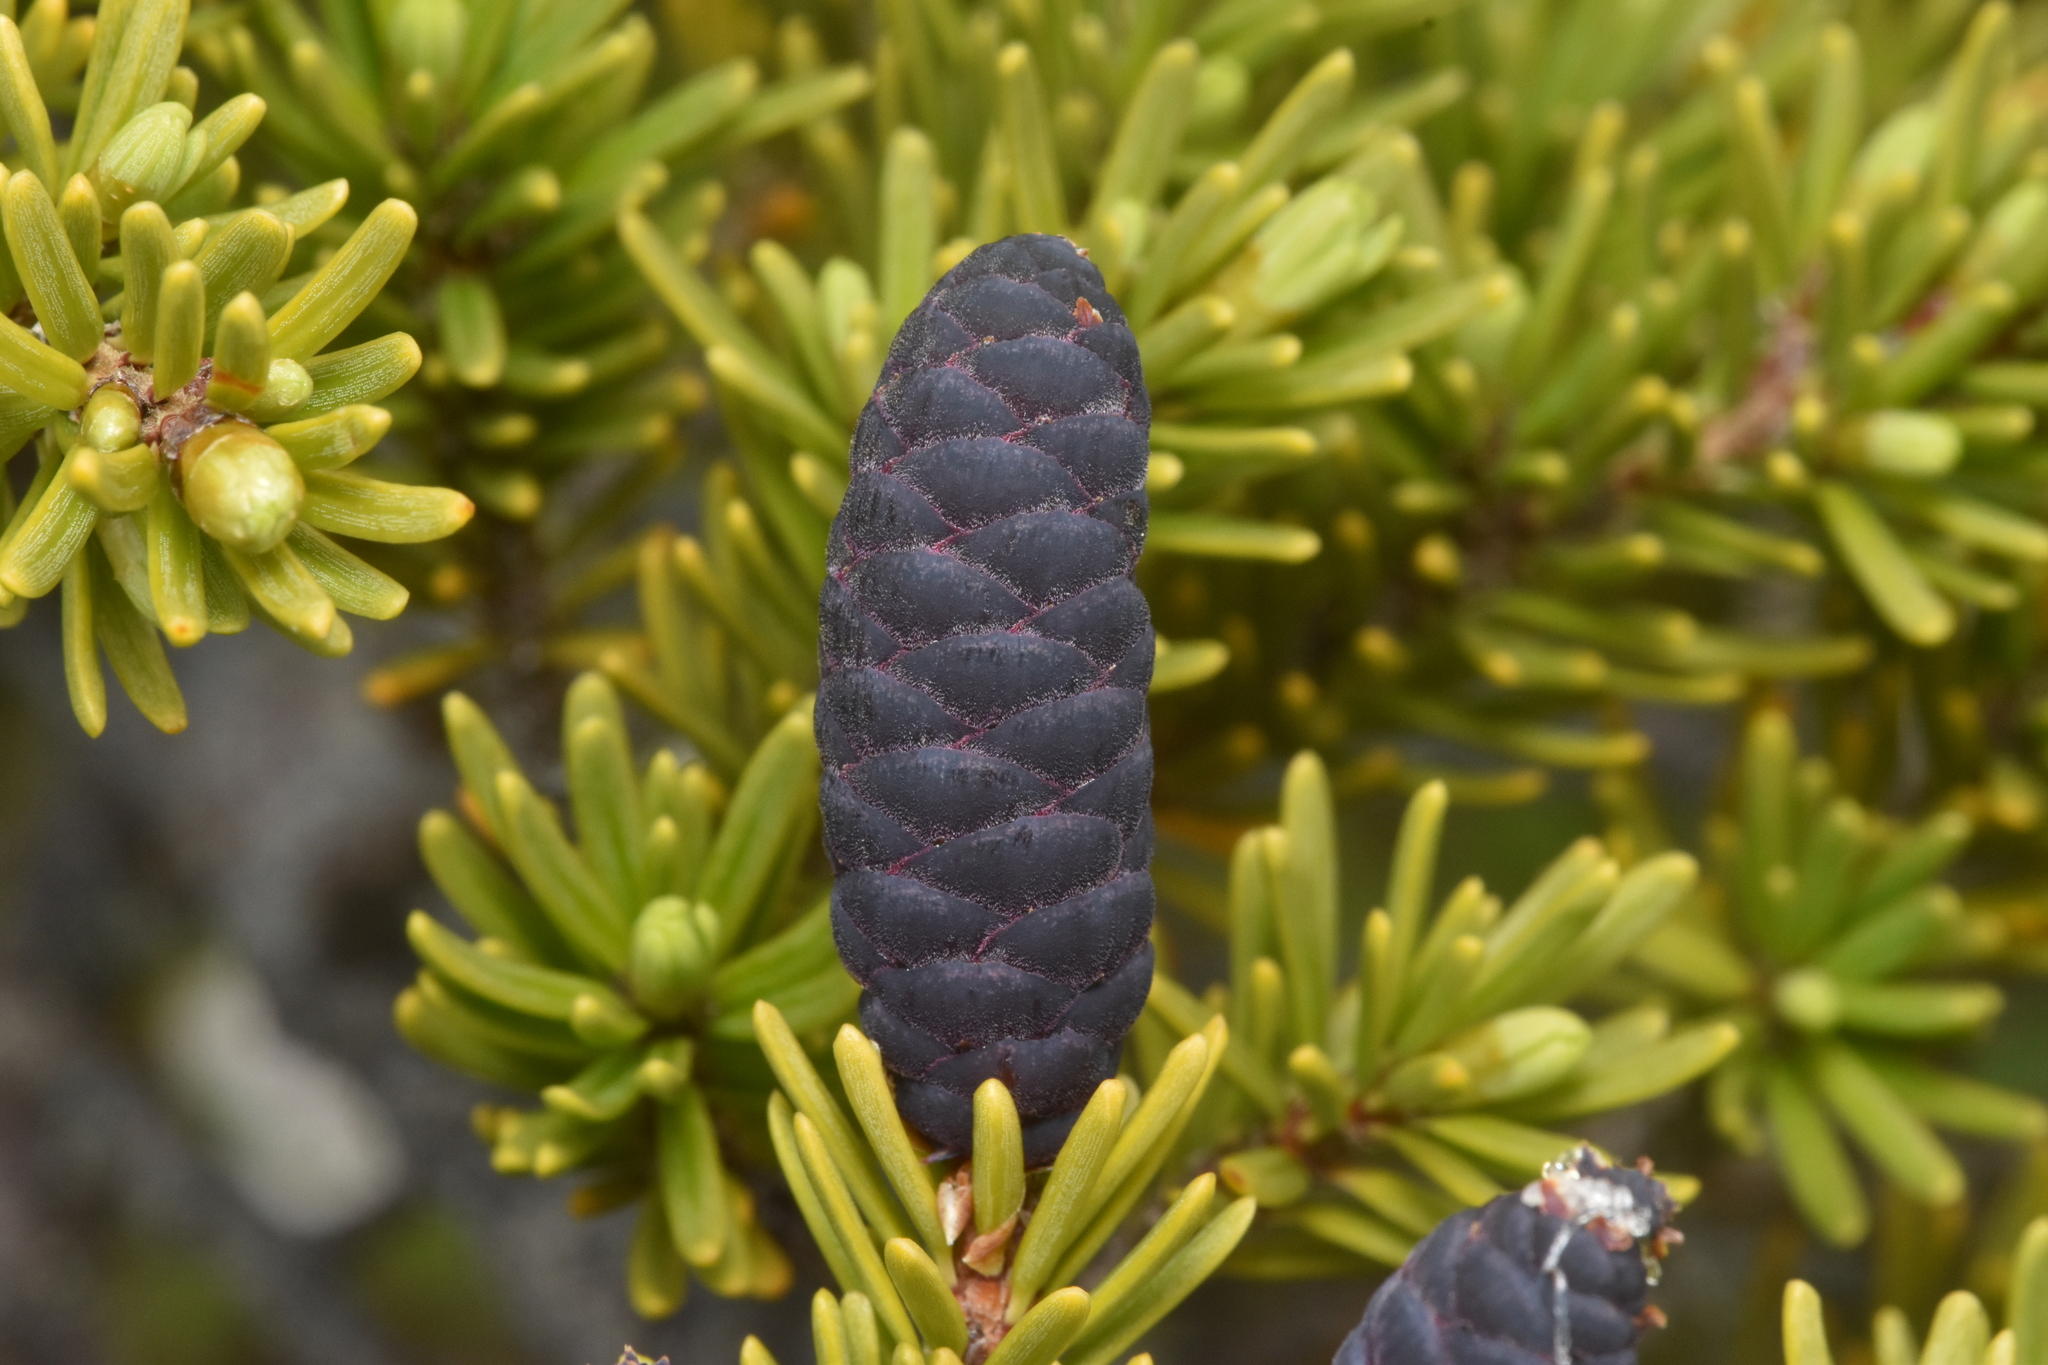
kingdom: Plantae
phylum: Tracheophyta
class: Pinopsida
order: Pinales
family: Pinaceae
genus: Tsuga
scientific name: Tsuga mertensiana
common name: Mountain hemlock
